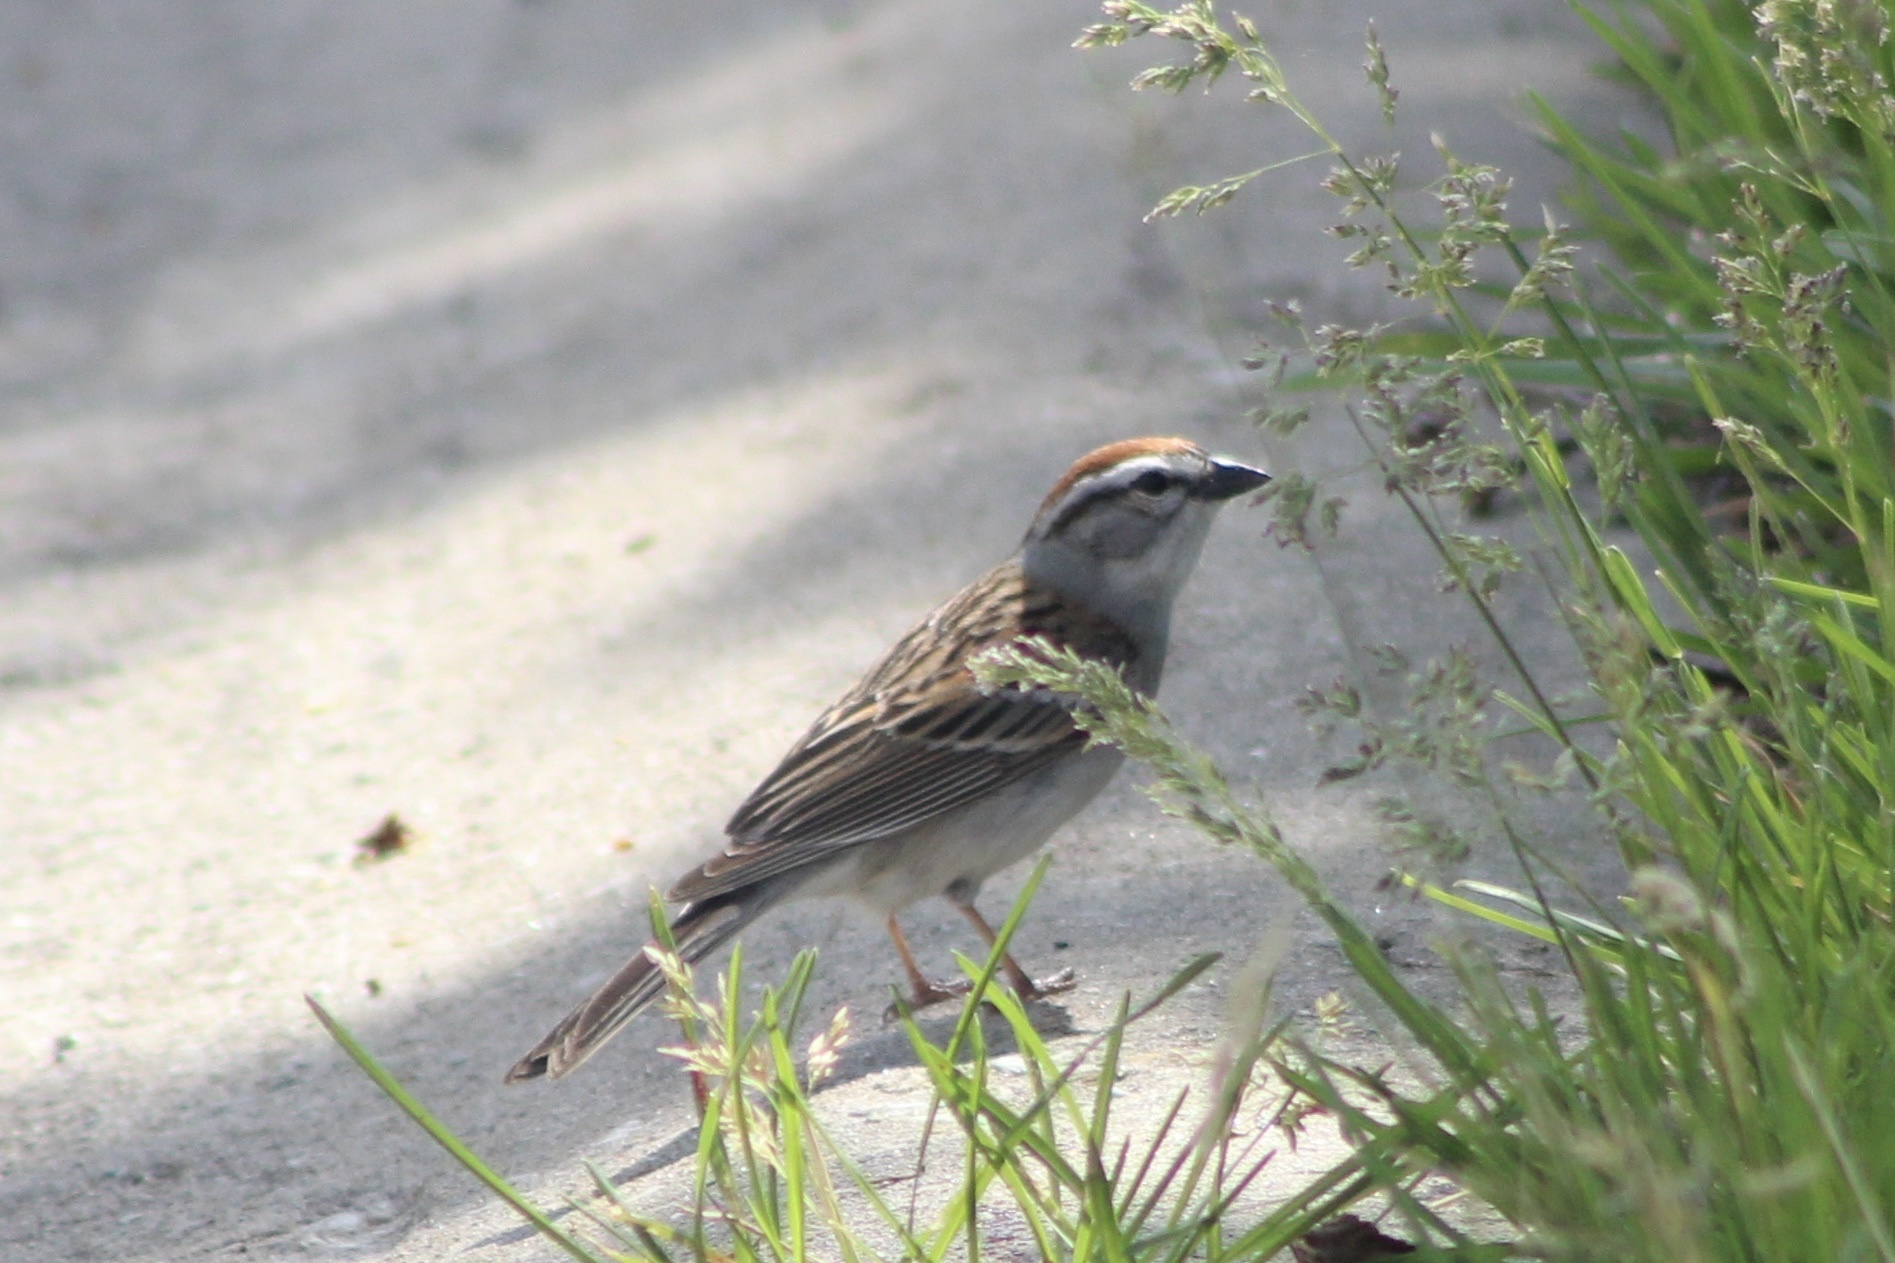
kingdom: Animalia
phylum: Chordata
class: Aves
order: Passeriformes
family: Passerellidae
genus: Spizella
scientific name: Spizella passerina
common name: Chipping sparrow
